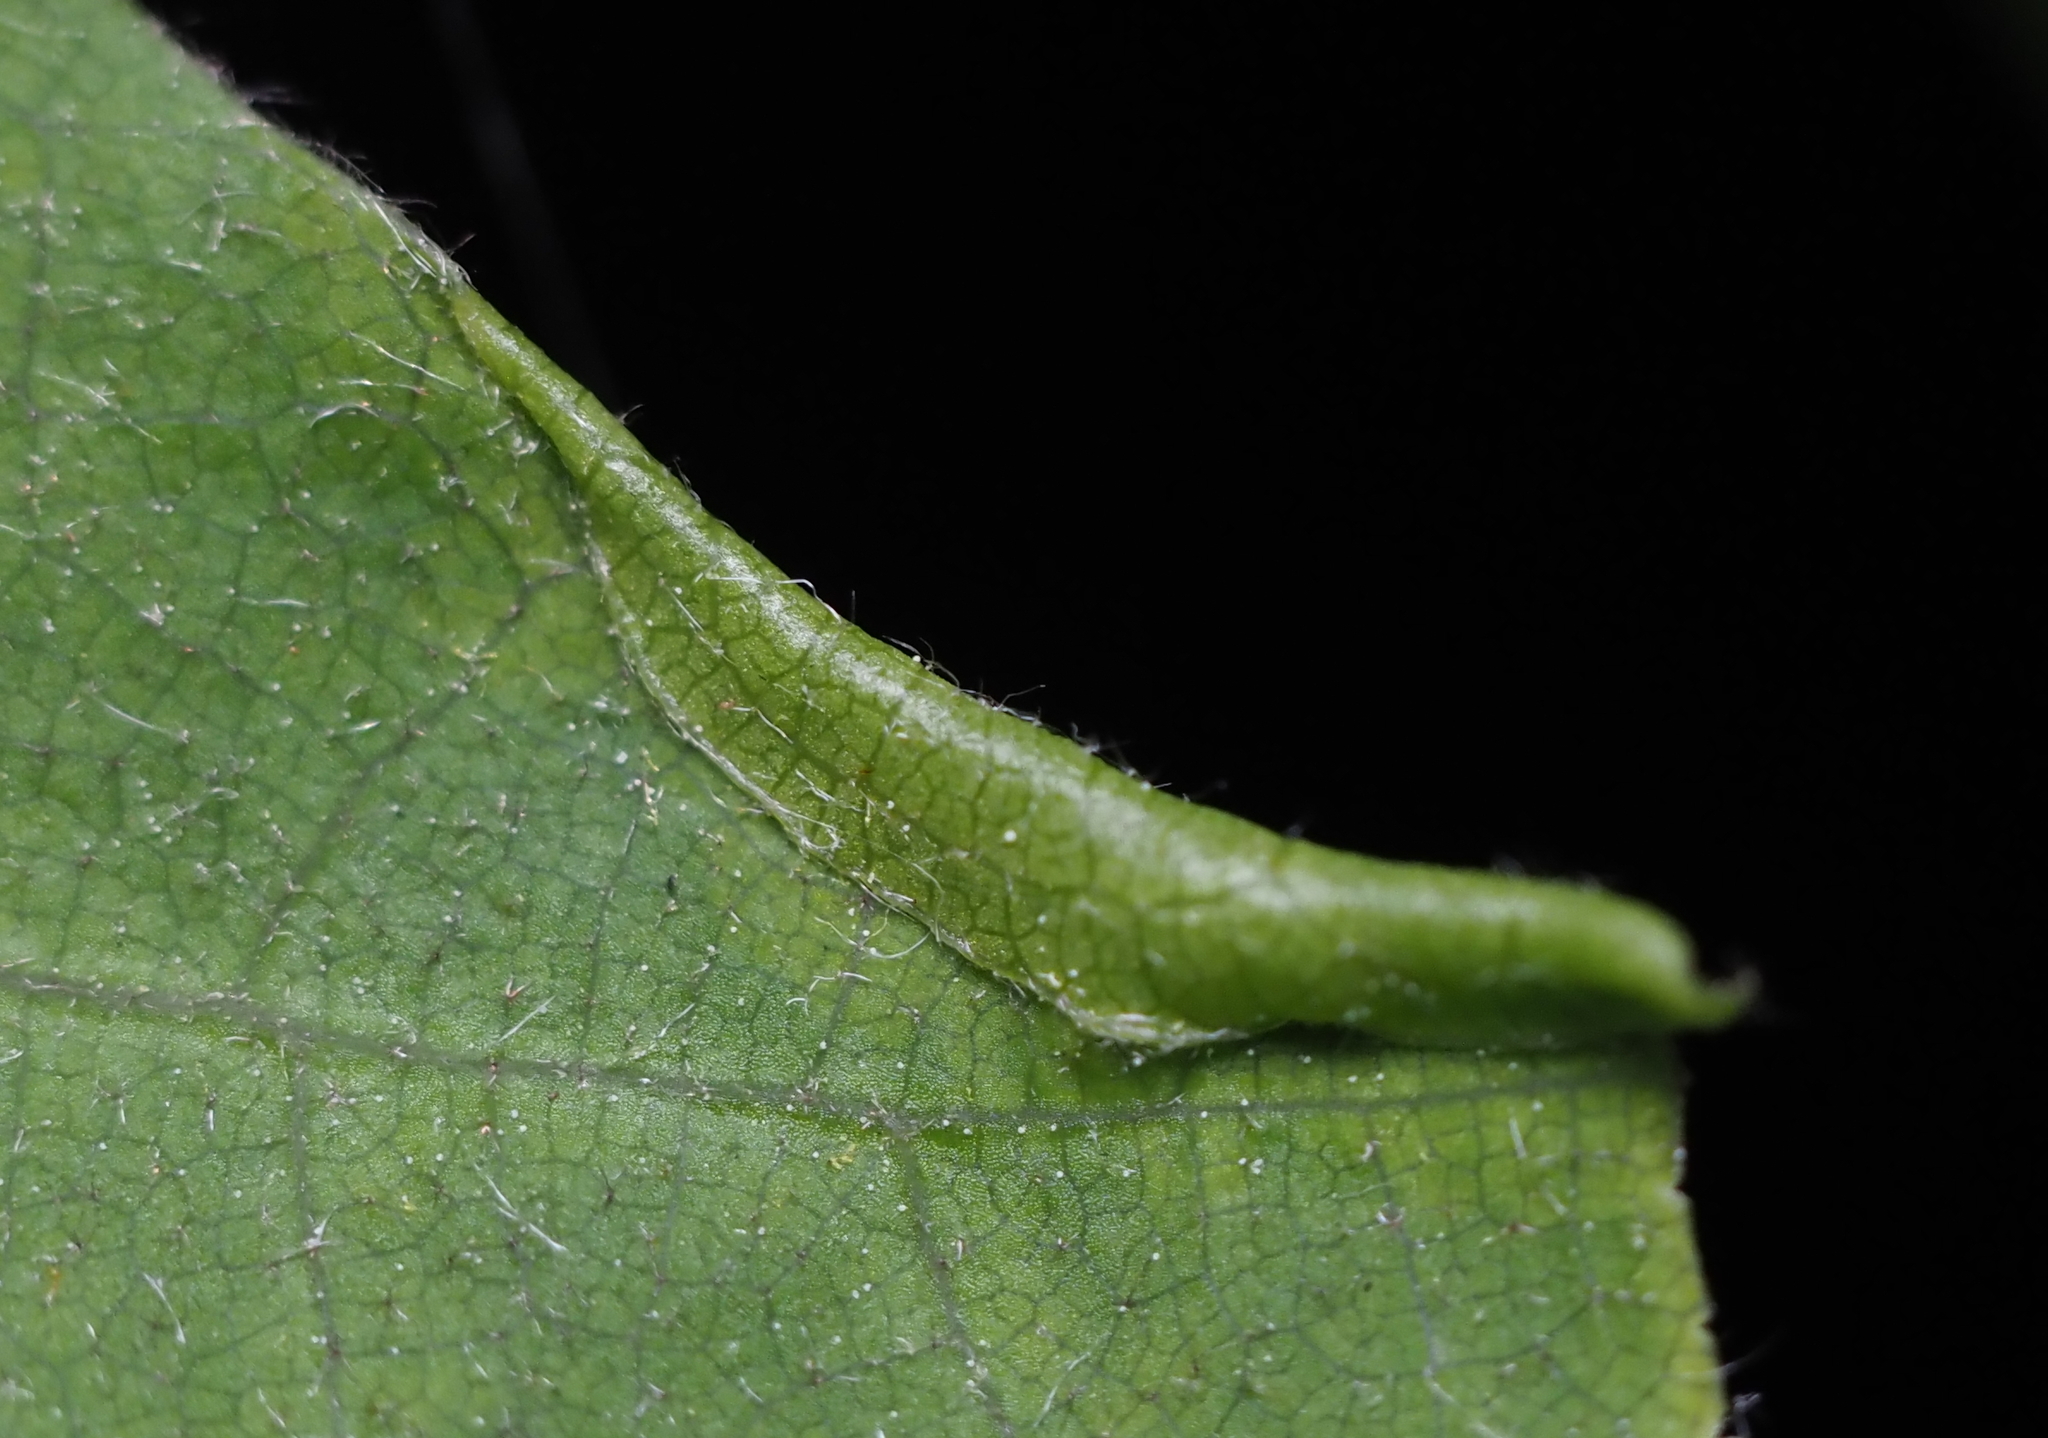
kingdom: Animalia
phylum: Arthropoda
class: Insecta
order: Diptera
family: Cecidomyiidae
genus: Macrodiplosis
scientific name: Macrodiplosis erubescens
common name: Marginal leaf fold gall midge
